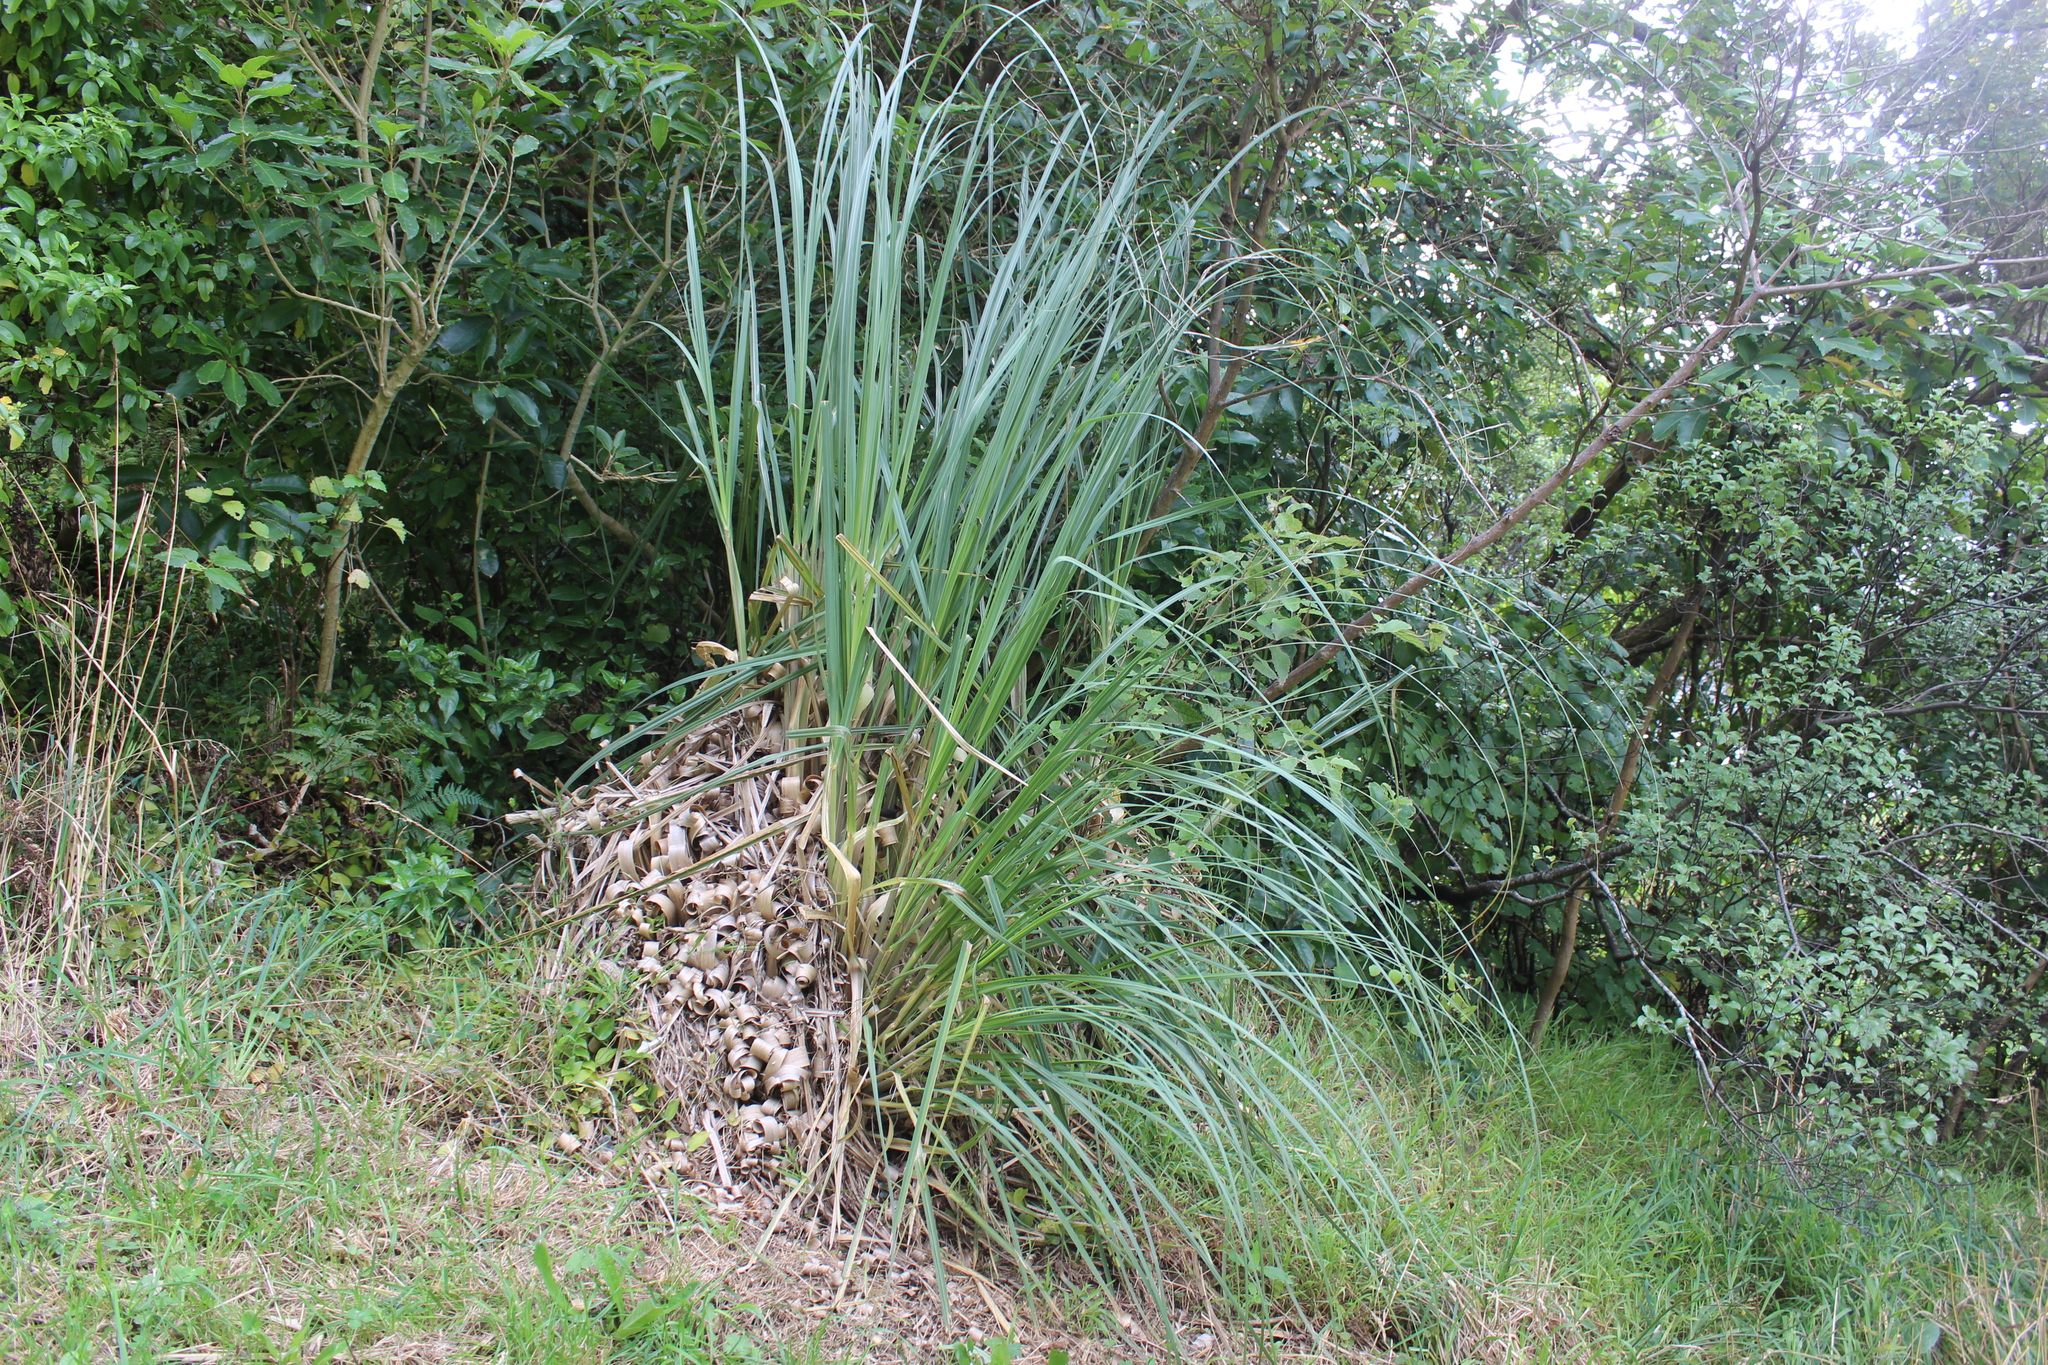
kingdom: Plantae
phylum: Tracheophyta
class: Liliopsida
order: Poales
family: Poaceae
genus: Cortaderia
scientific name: Cortaderia selloana
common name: Uruguayan pampas grass
